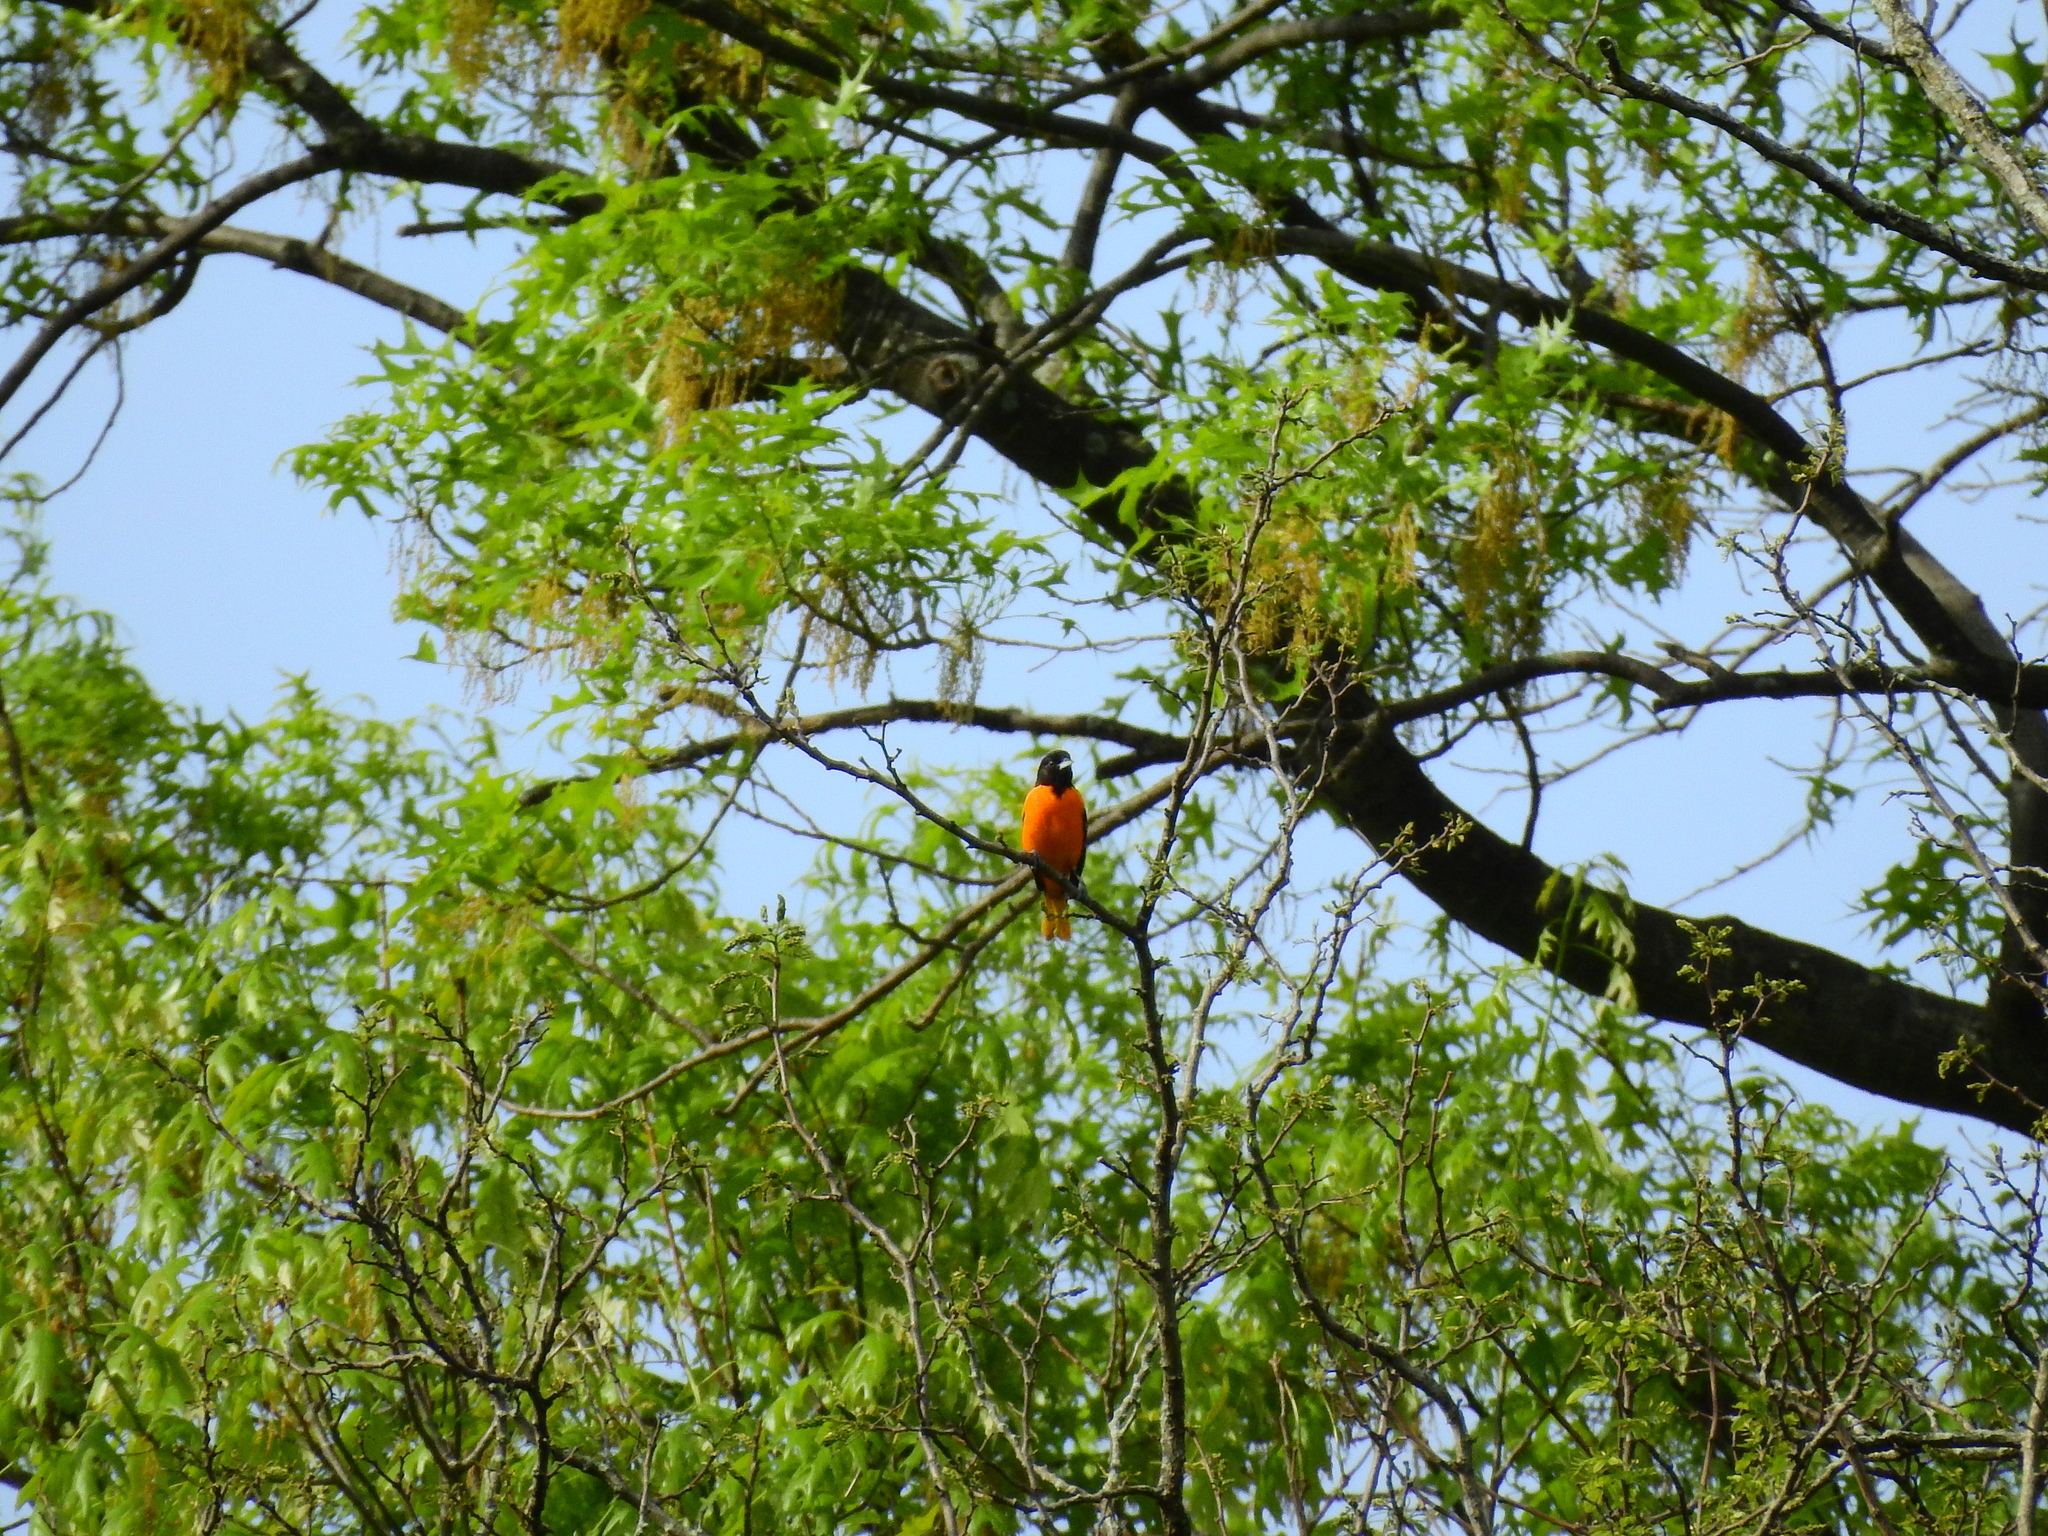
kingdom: Animalia
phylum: Chordata
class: Aves
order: Passeriformes
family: Icteridae
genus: Icterus
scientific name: Icterus galbula
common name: Baltimore oriole
